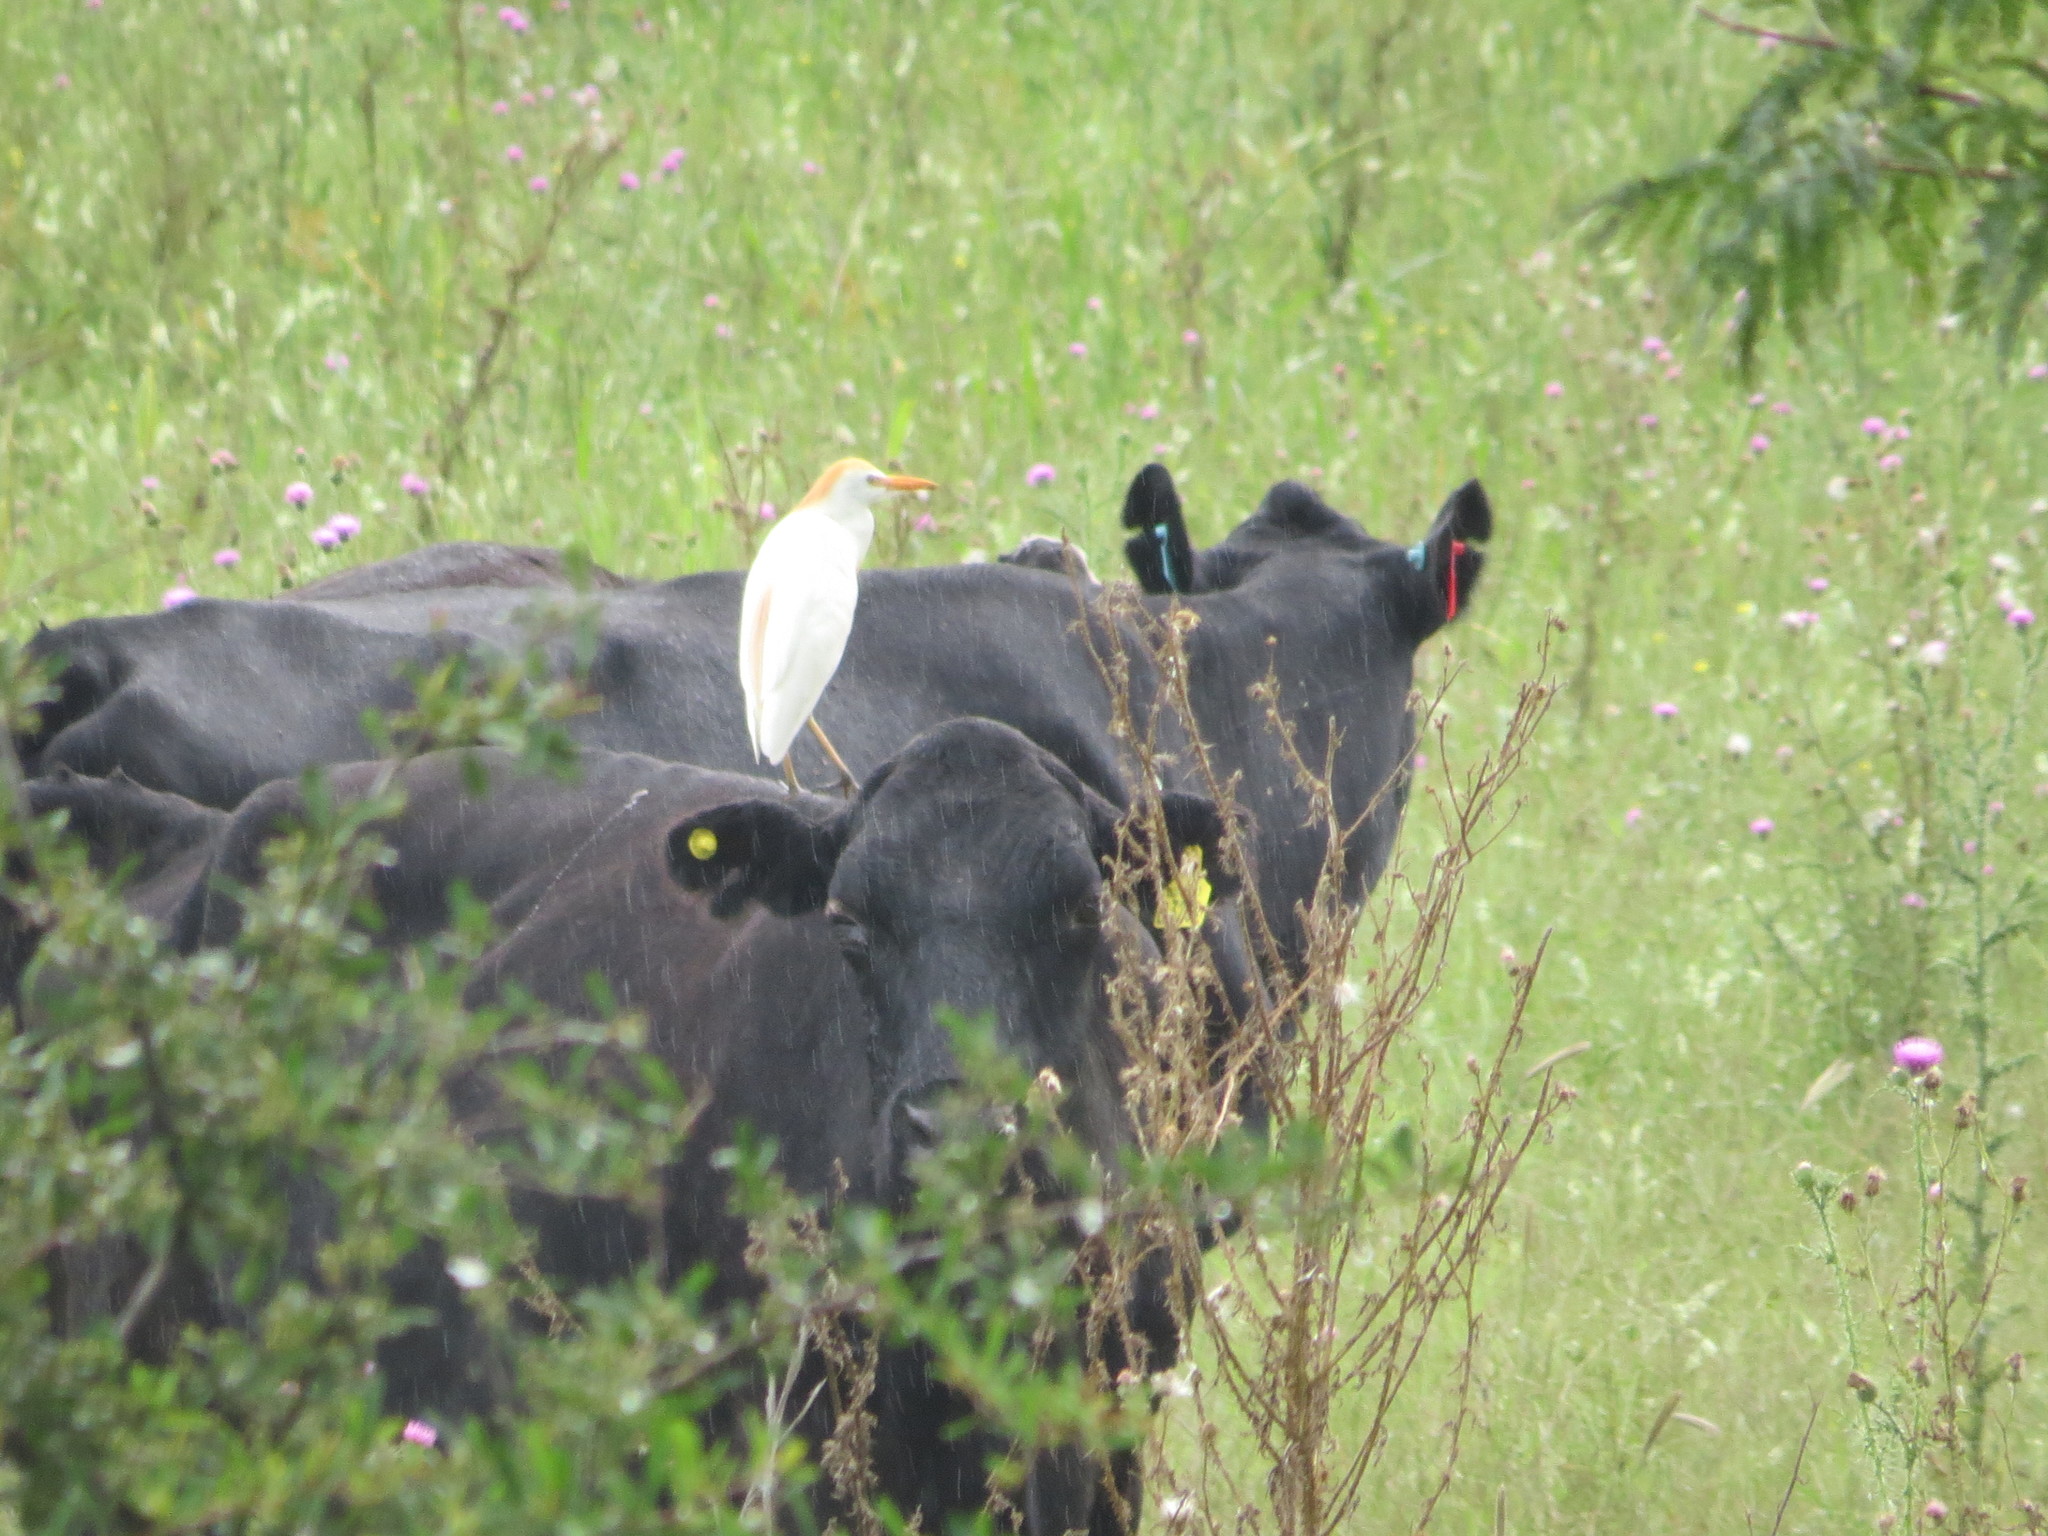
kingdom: Animalia
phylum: Chordata
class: Aves
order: Pelecaniformes
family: Ardeidae
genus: Bubulcus
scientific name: Bubulcus ibis
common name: Cattle egret
